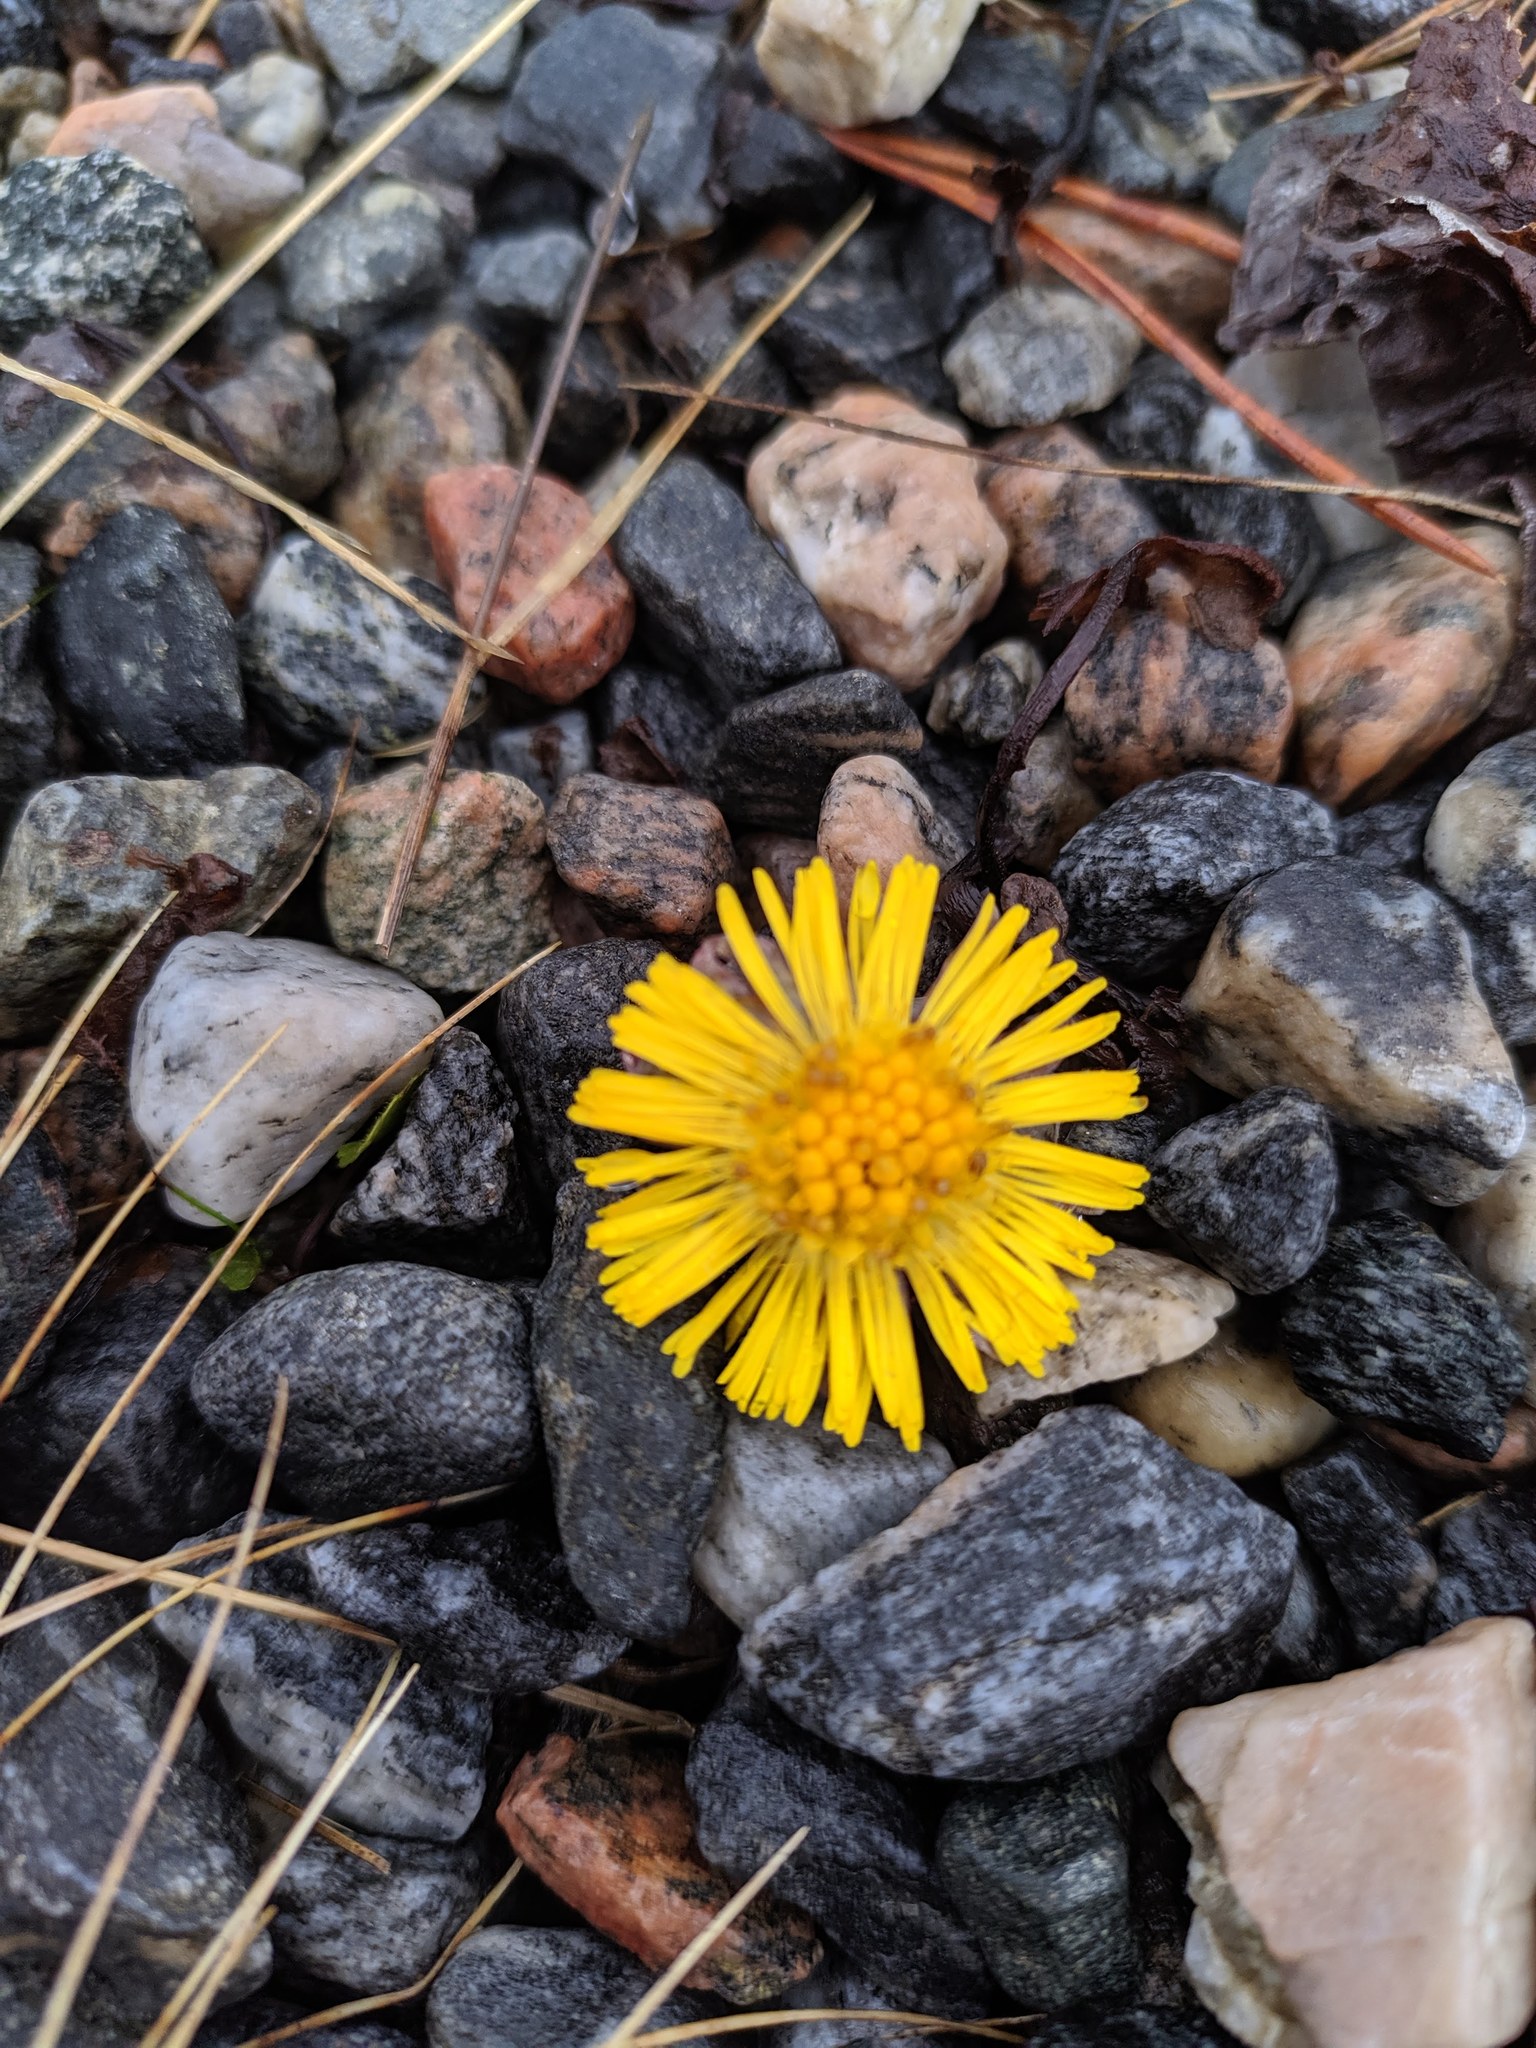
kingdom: Plantae
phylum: Tracheophyta
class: Magnoliopsida
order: Asterales
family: Asteraceae
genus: Tussilago
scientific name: Tussilago farfara
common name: Coltsfoot
